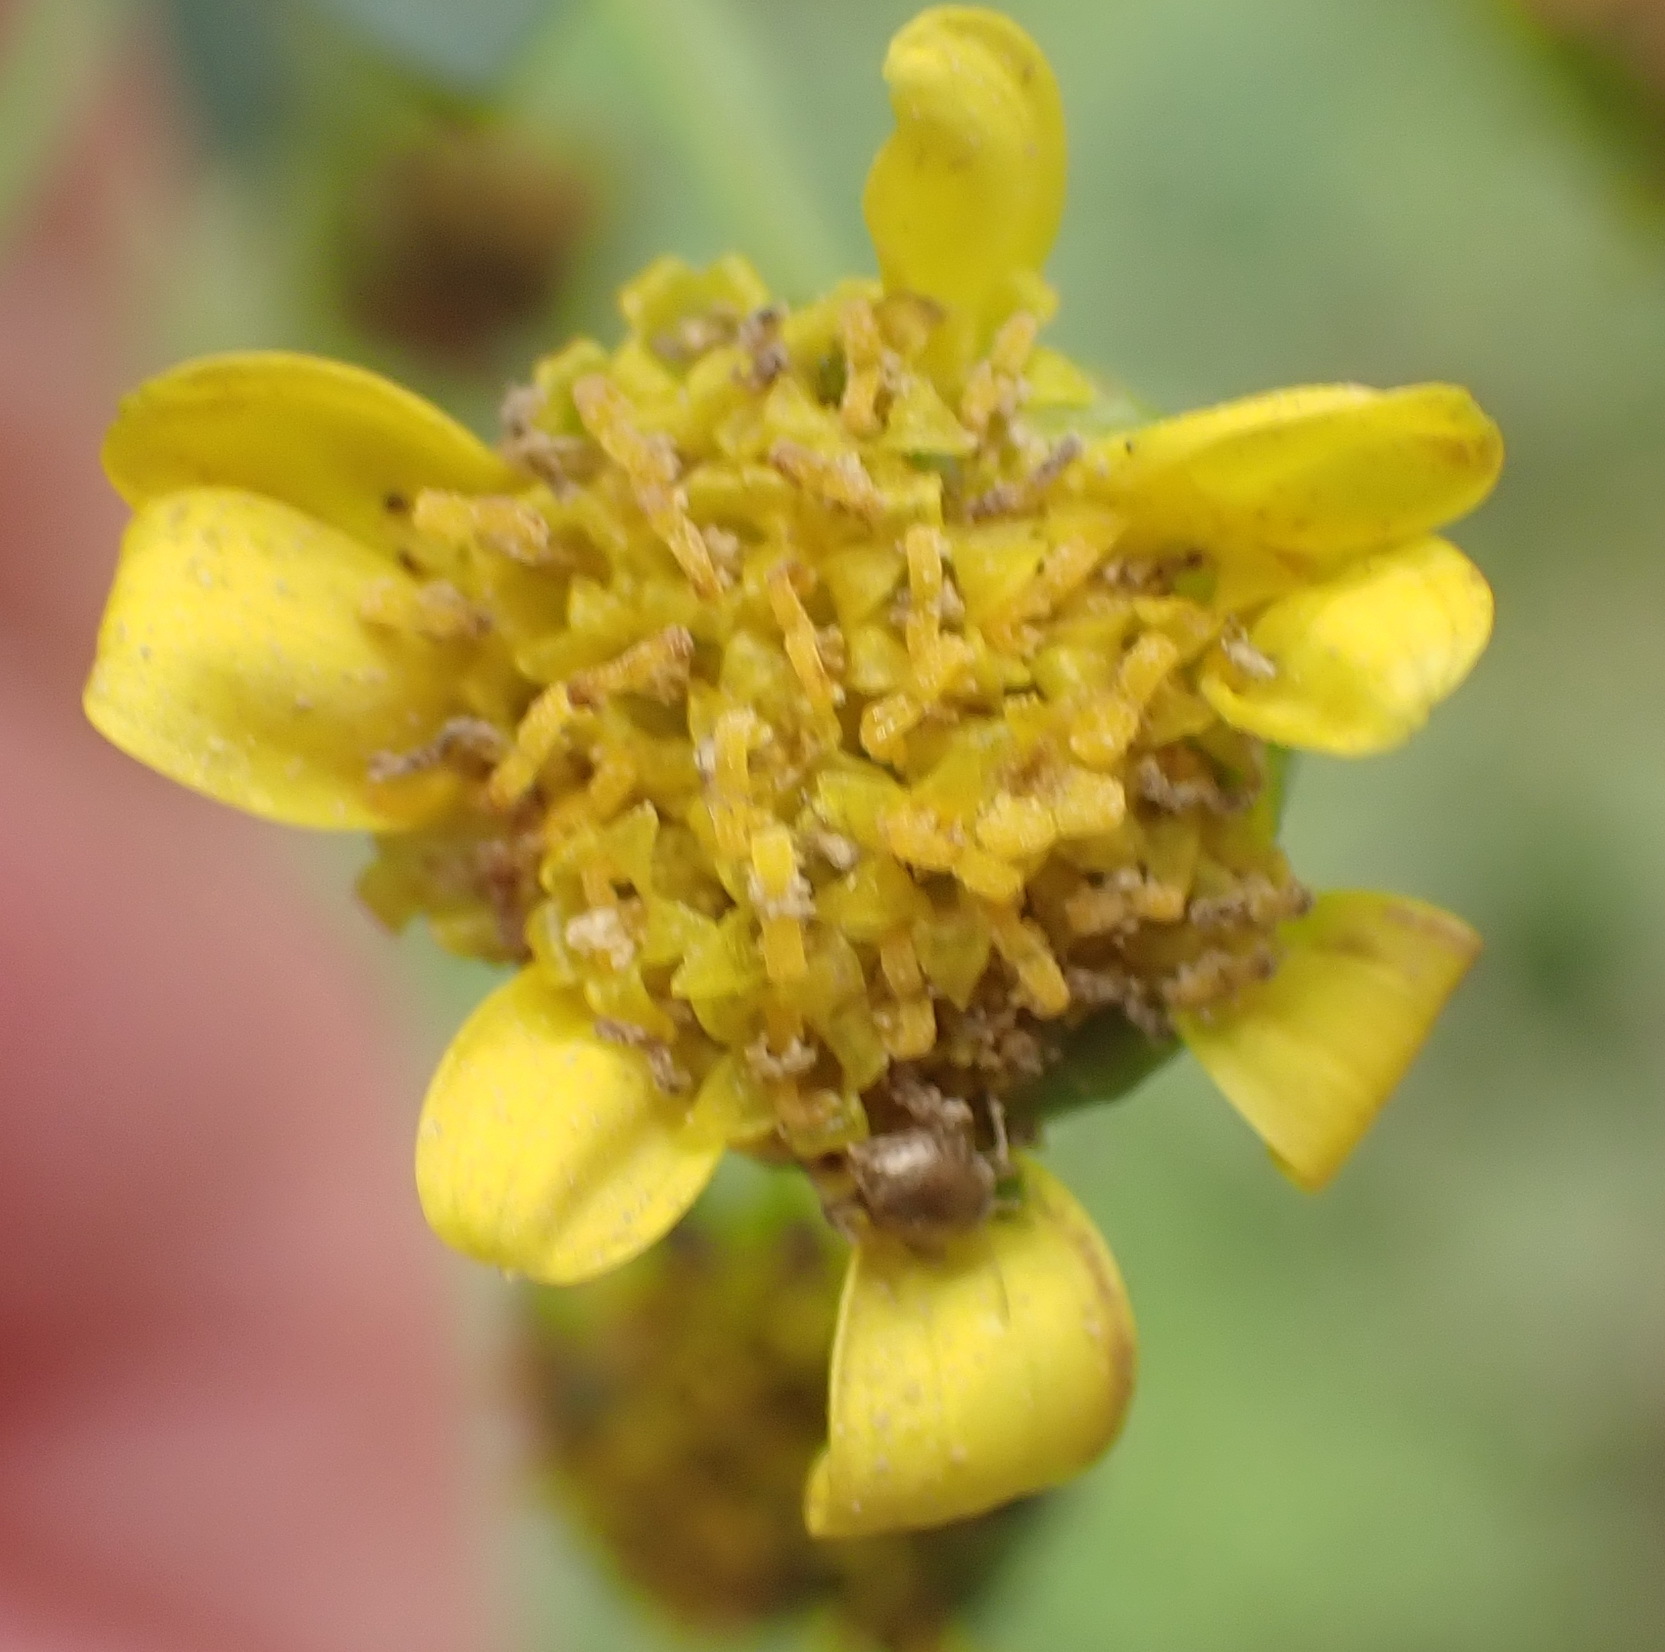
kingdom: Plantae
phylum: Tracheophyta
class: Magnoliopsida
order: Asterales
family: Asteraceae
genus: Euryops
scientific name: Euryops lateriflorus
